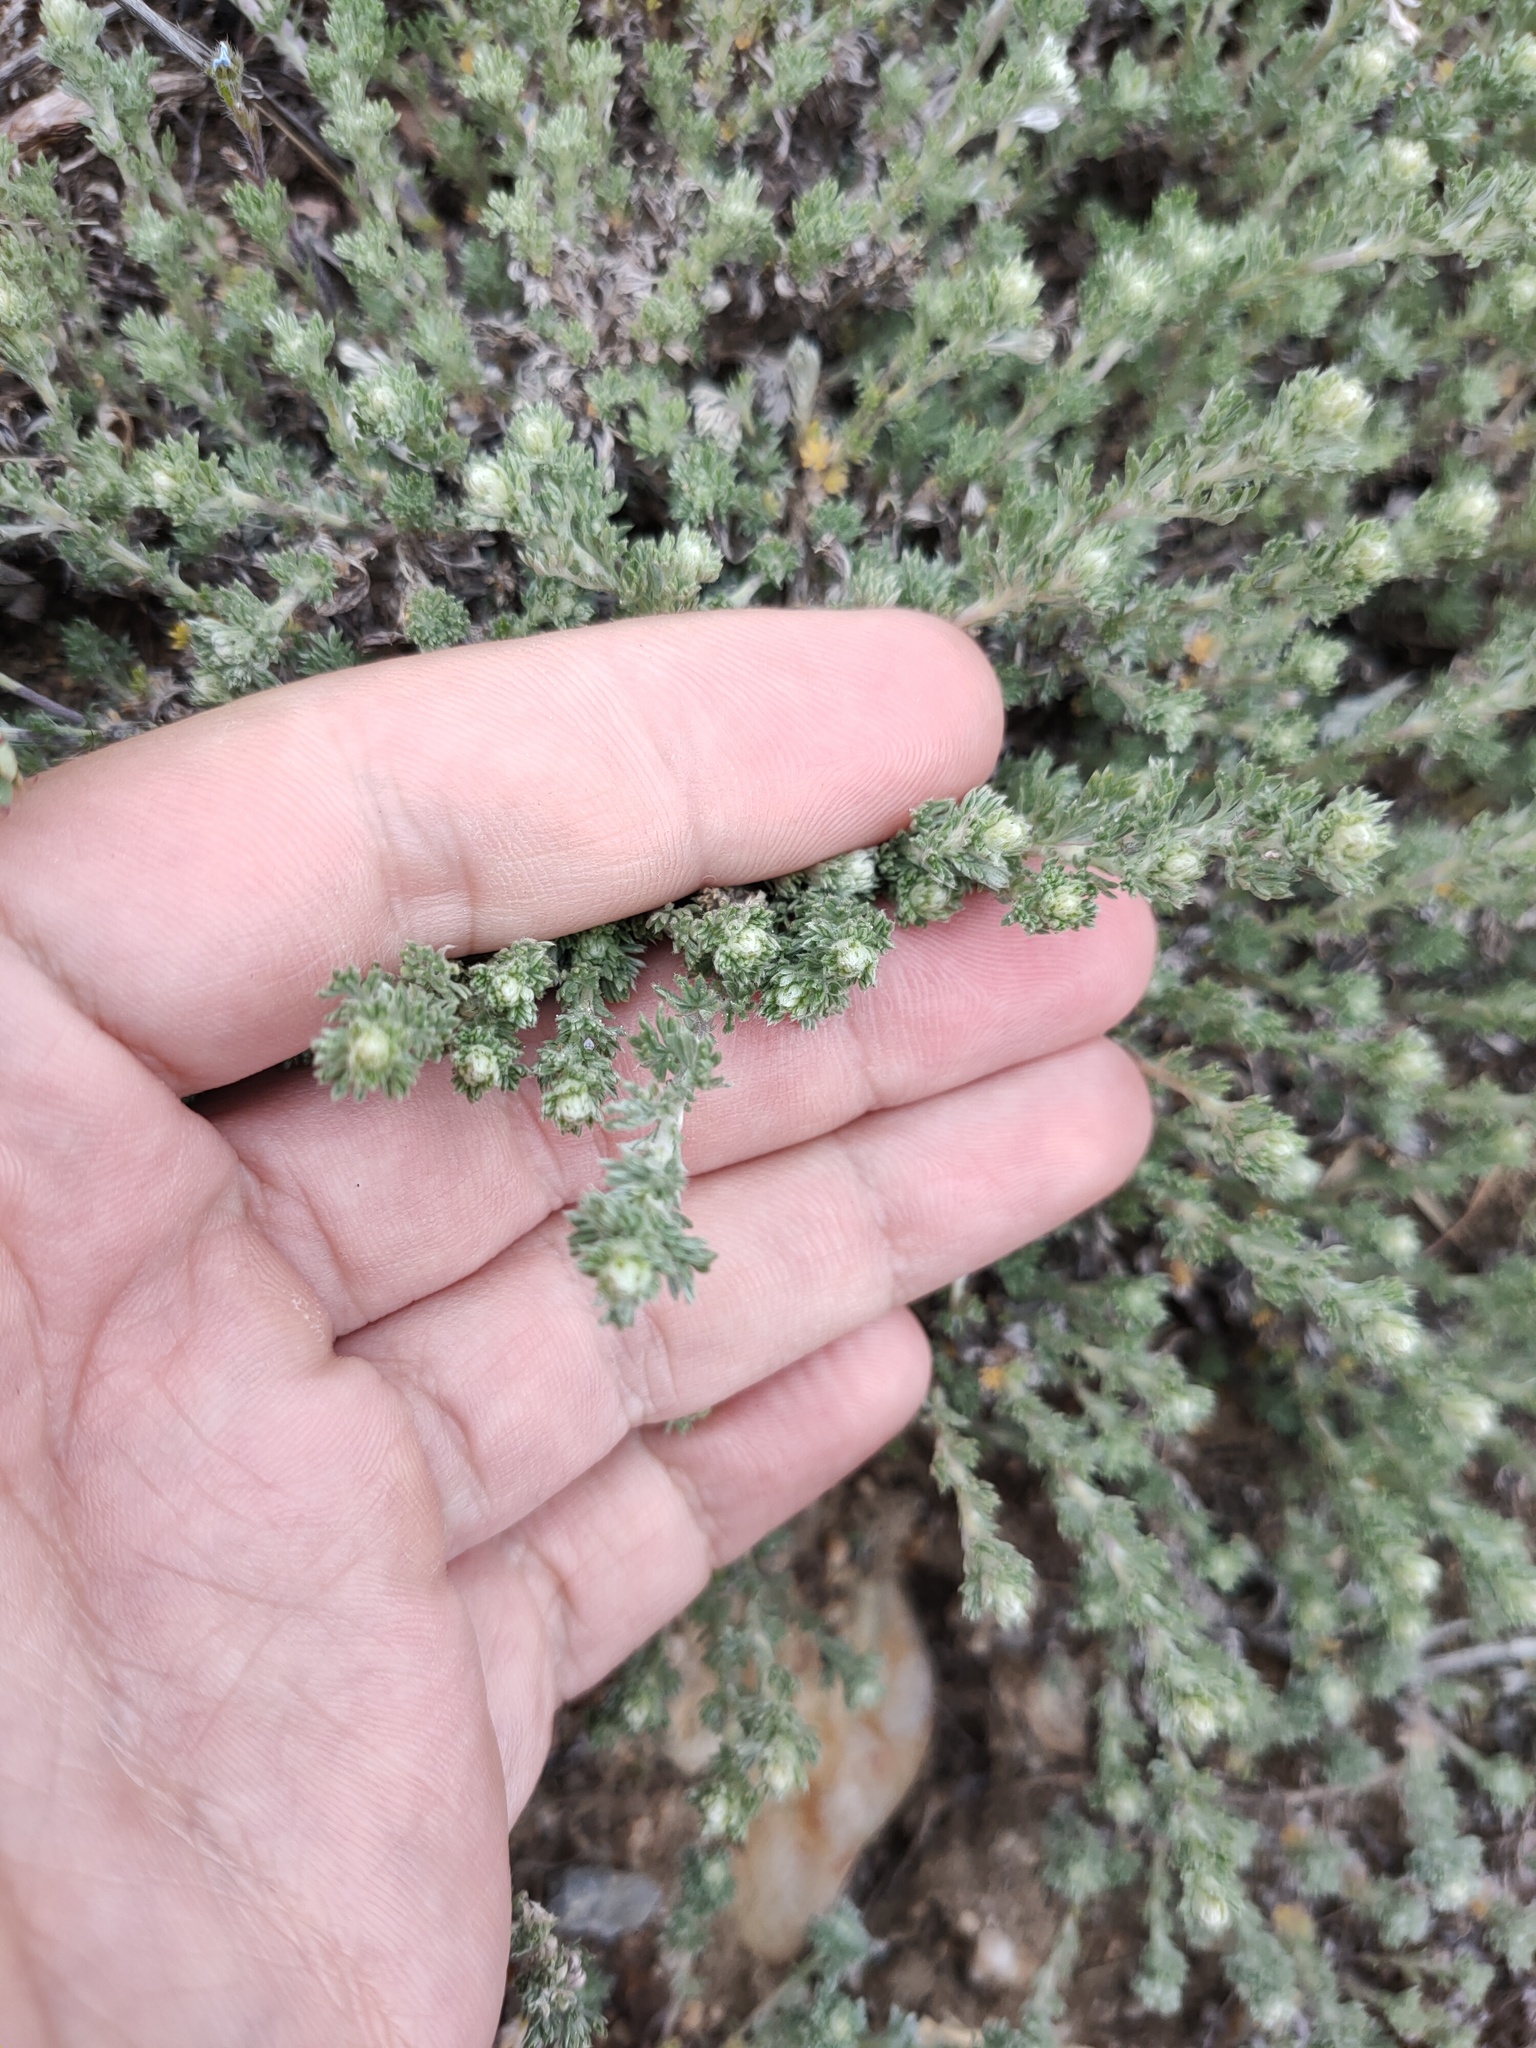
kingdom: Plantae
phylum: Tracheophyta
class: Magnoliopsida
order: Asterales
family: Asteraceae
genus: Artemisia
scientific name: Artemisia frigida
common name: Prairie sagewort
